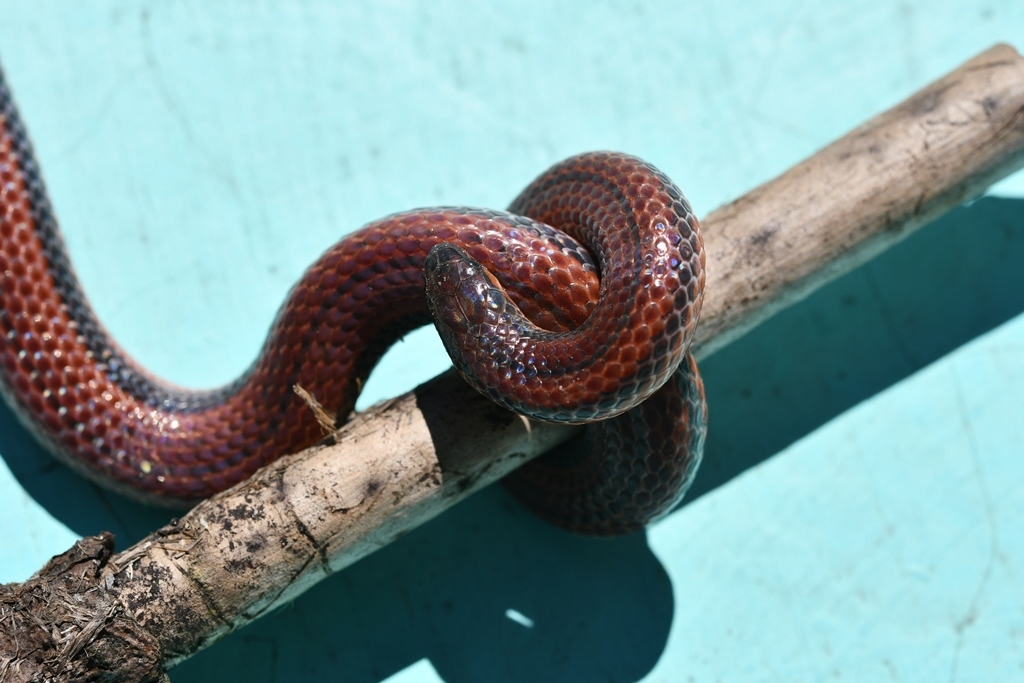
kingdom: Animalia
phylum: Chordata
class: Squamata
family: Colubridae
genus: Adelphicos
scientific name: Adelphicos nigrilatum
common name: Burrowing snake
